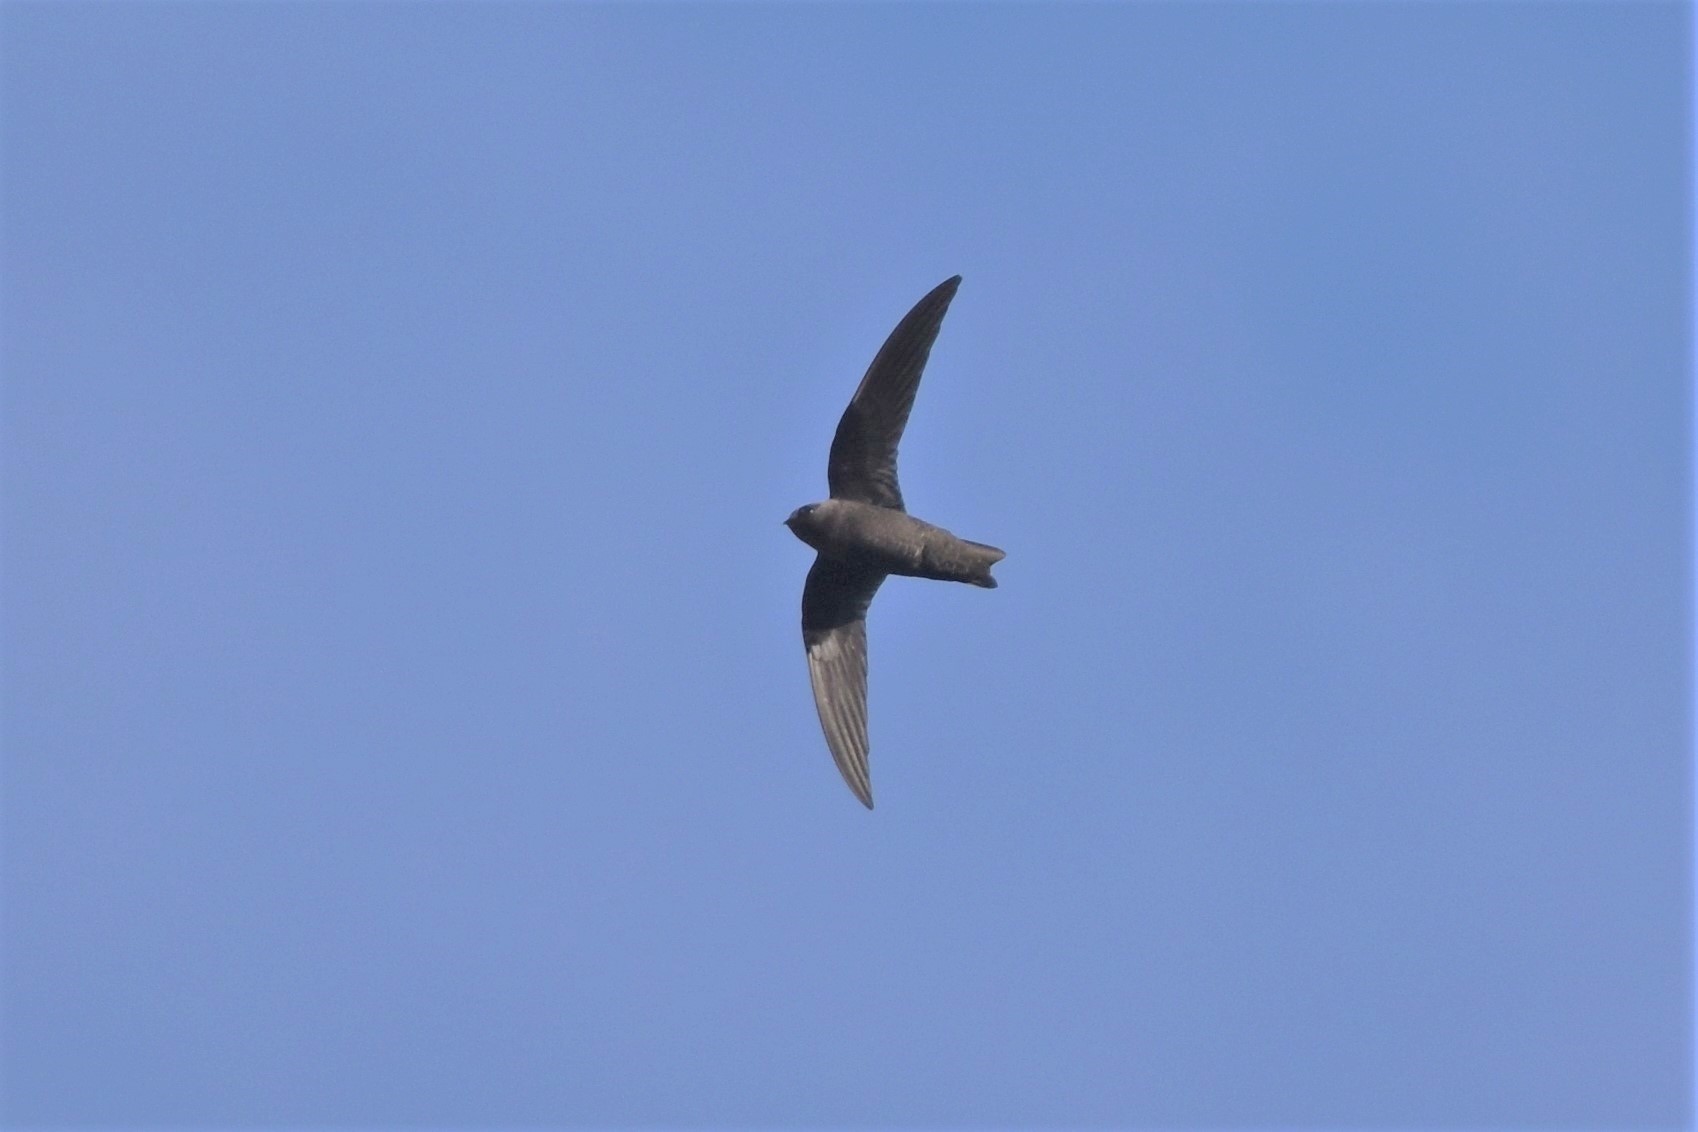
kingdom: Animalia
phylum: Chordata
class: Aves
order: Apodiformes
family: Apodidae
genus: Cypseloides
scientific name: Cypseloides niger
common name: Black swift
